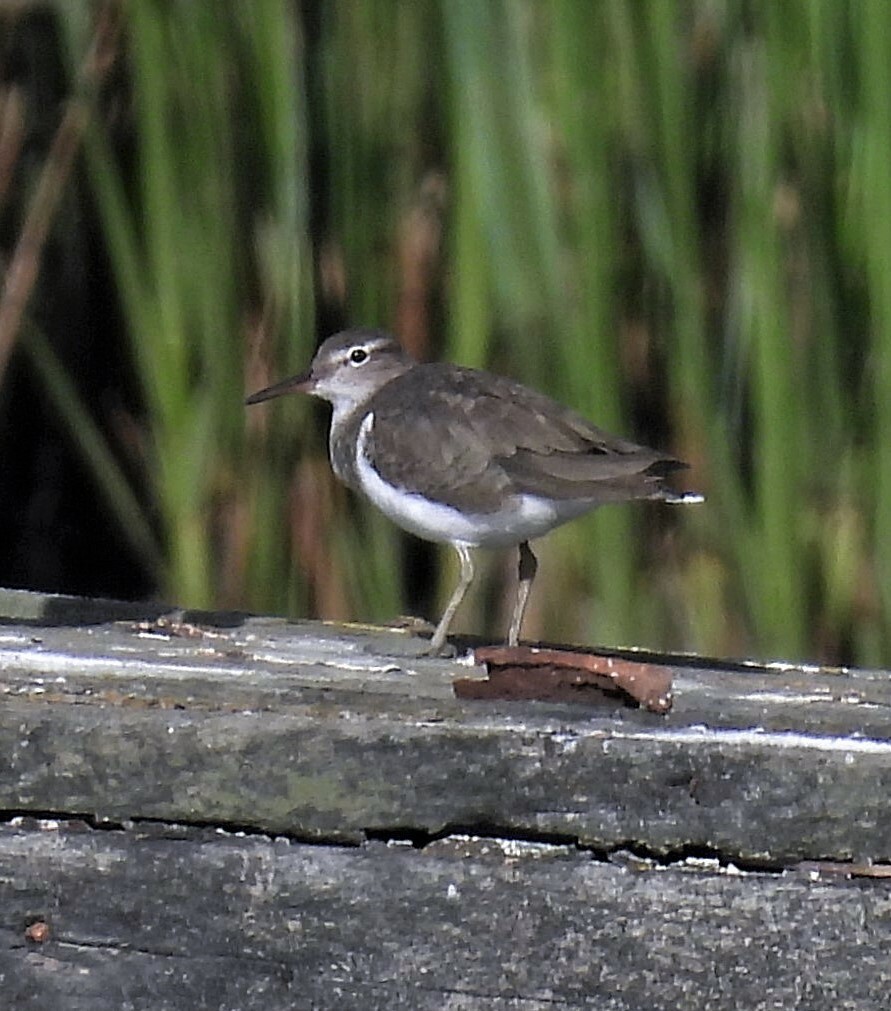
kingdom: Animalia
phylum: Chordata
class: Aves
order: Charadriiformes
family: Scolopacidae
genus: Actitis
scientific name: Actitis macularius
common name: Spotted sandpiper
